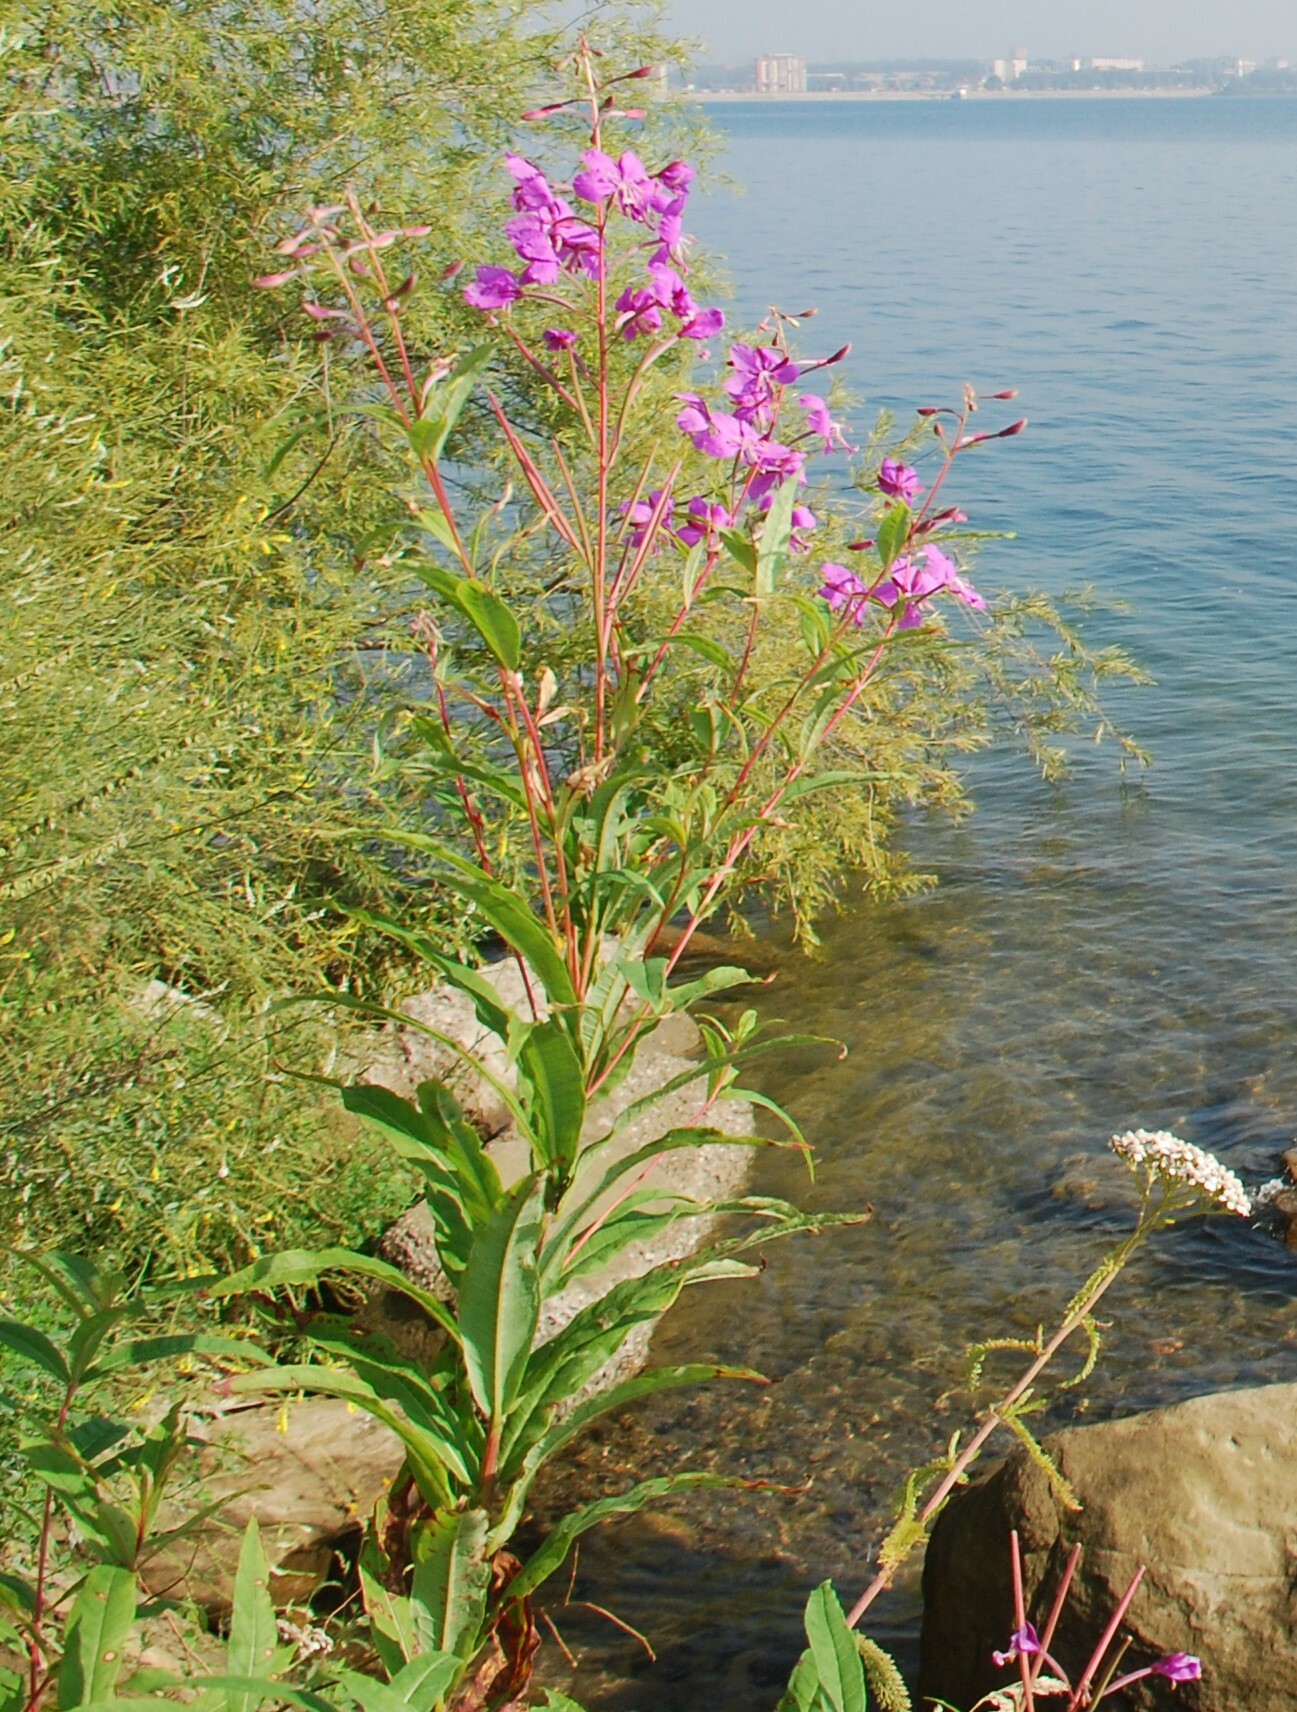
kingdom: Plantae
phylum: Tracheophyta
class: Magnoliopsida
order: Myrtales
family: Onagraceae
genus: Chamaenerion
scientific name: Chamaenerion angustifolium
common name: Fireweed
